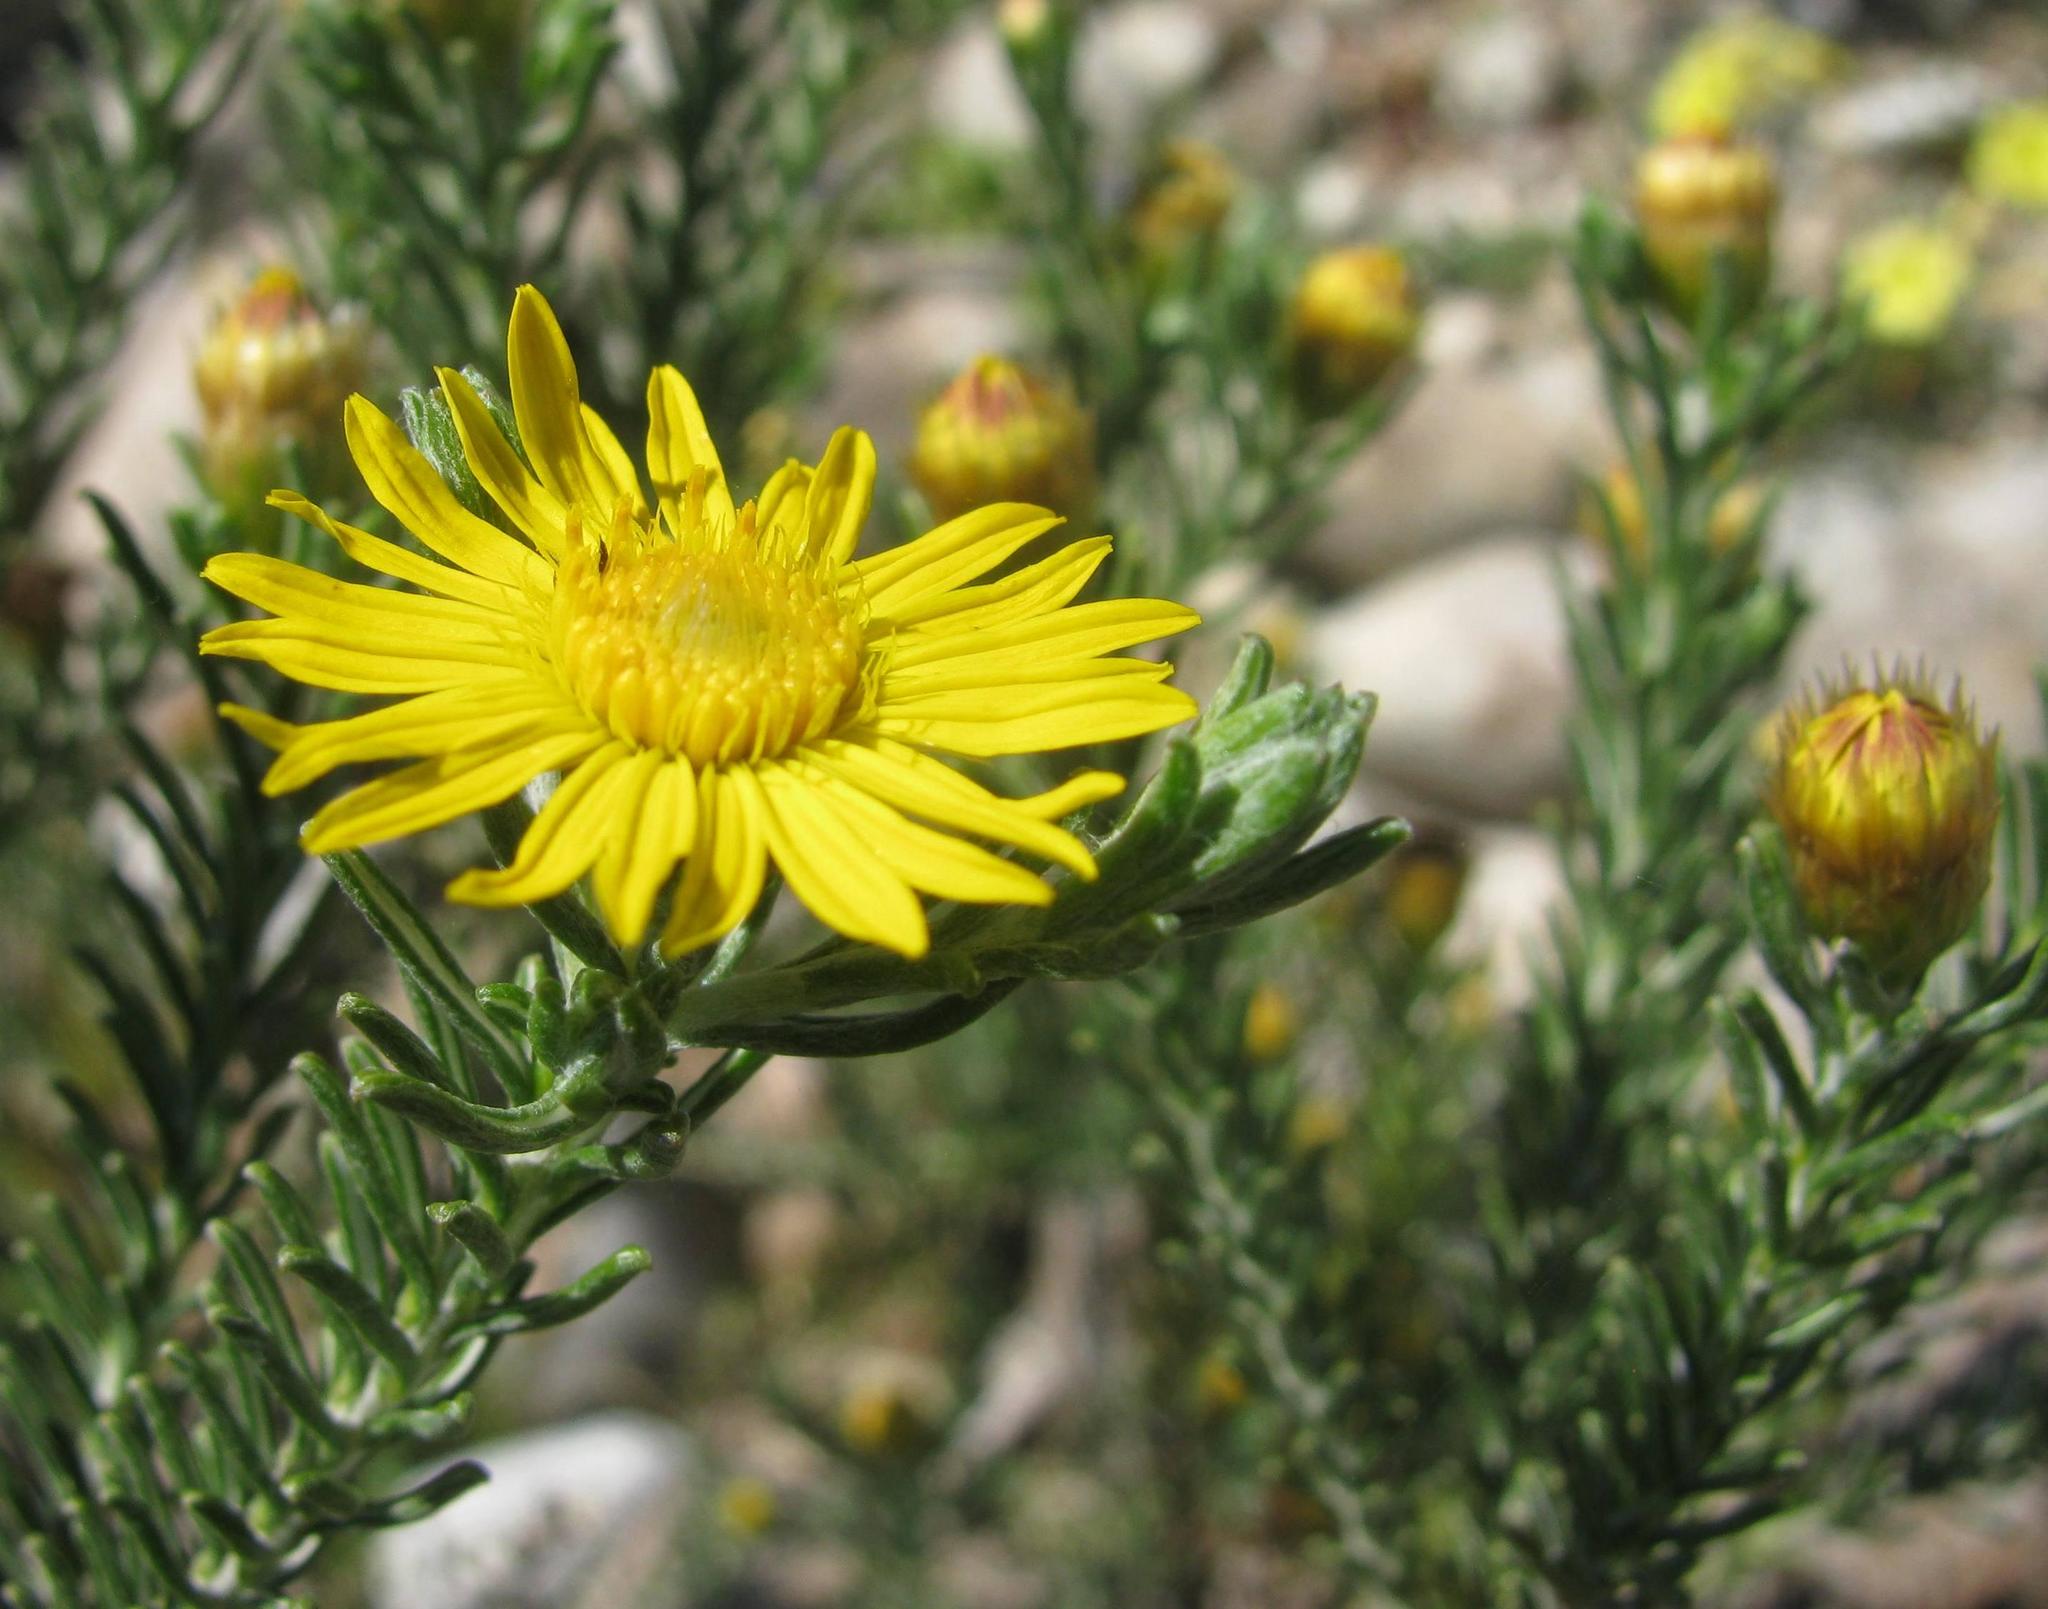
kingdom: Plantae
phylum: Tracheophyta
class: Magnoliopsida
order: Asterales
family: Asteraceae
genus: Oedera
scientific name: Oedera fruticosa
